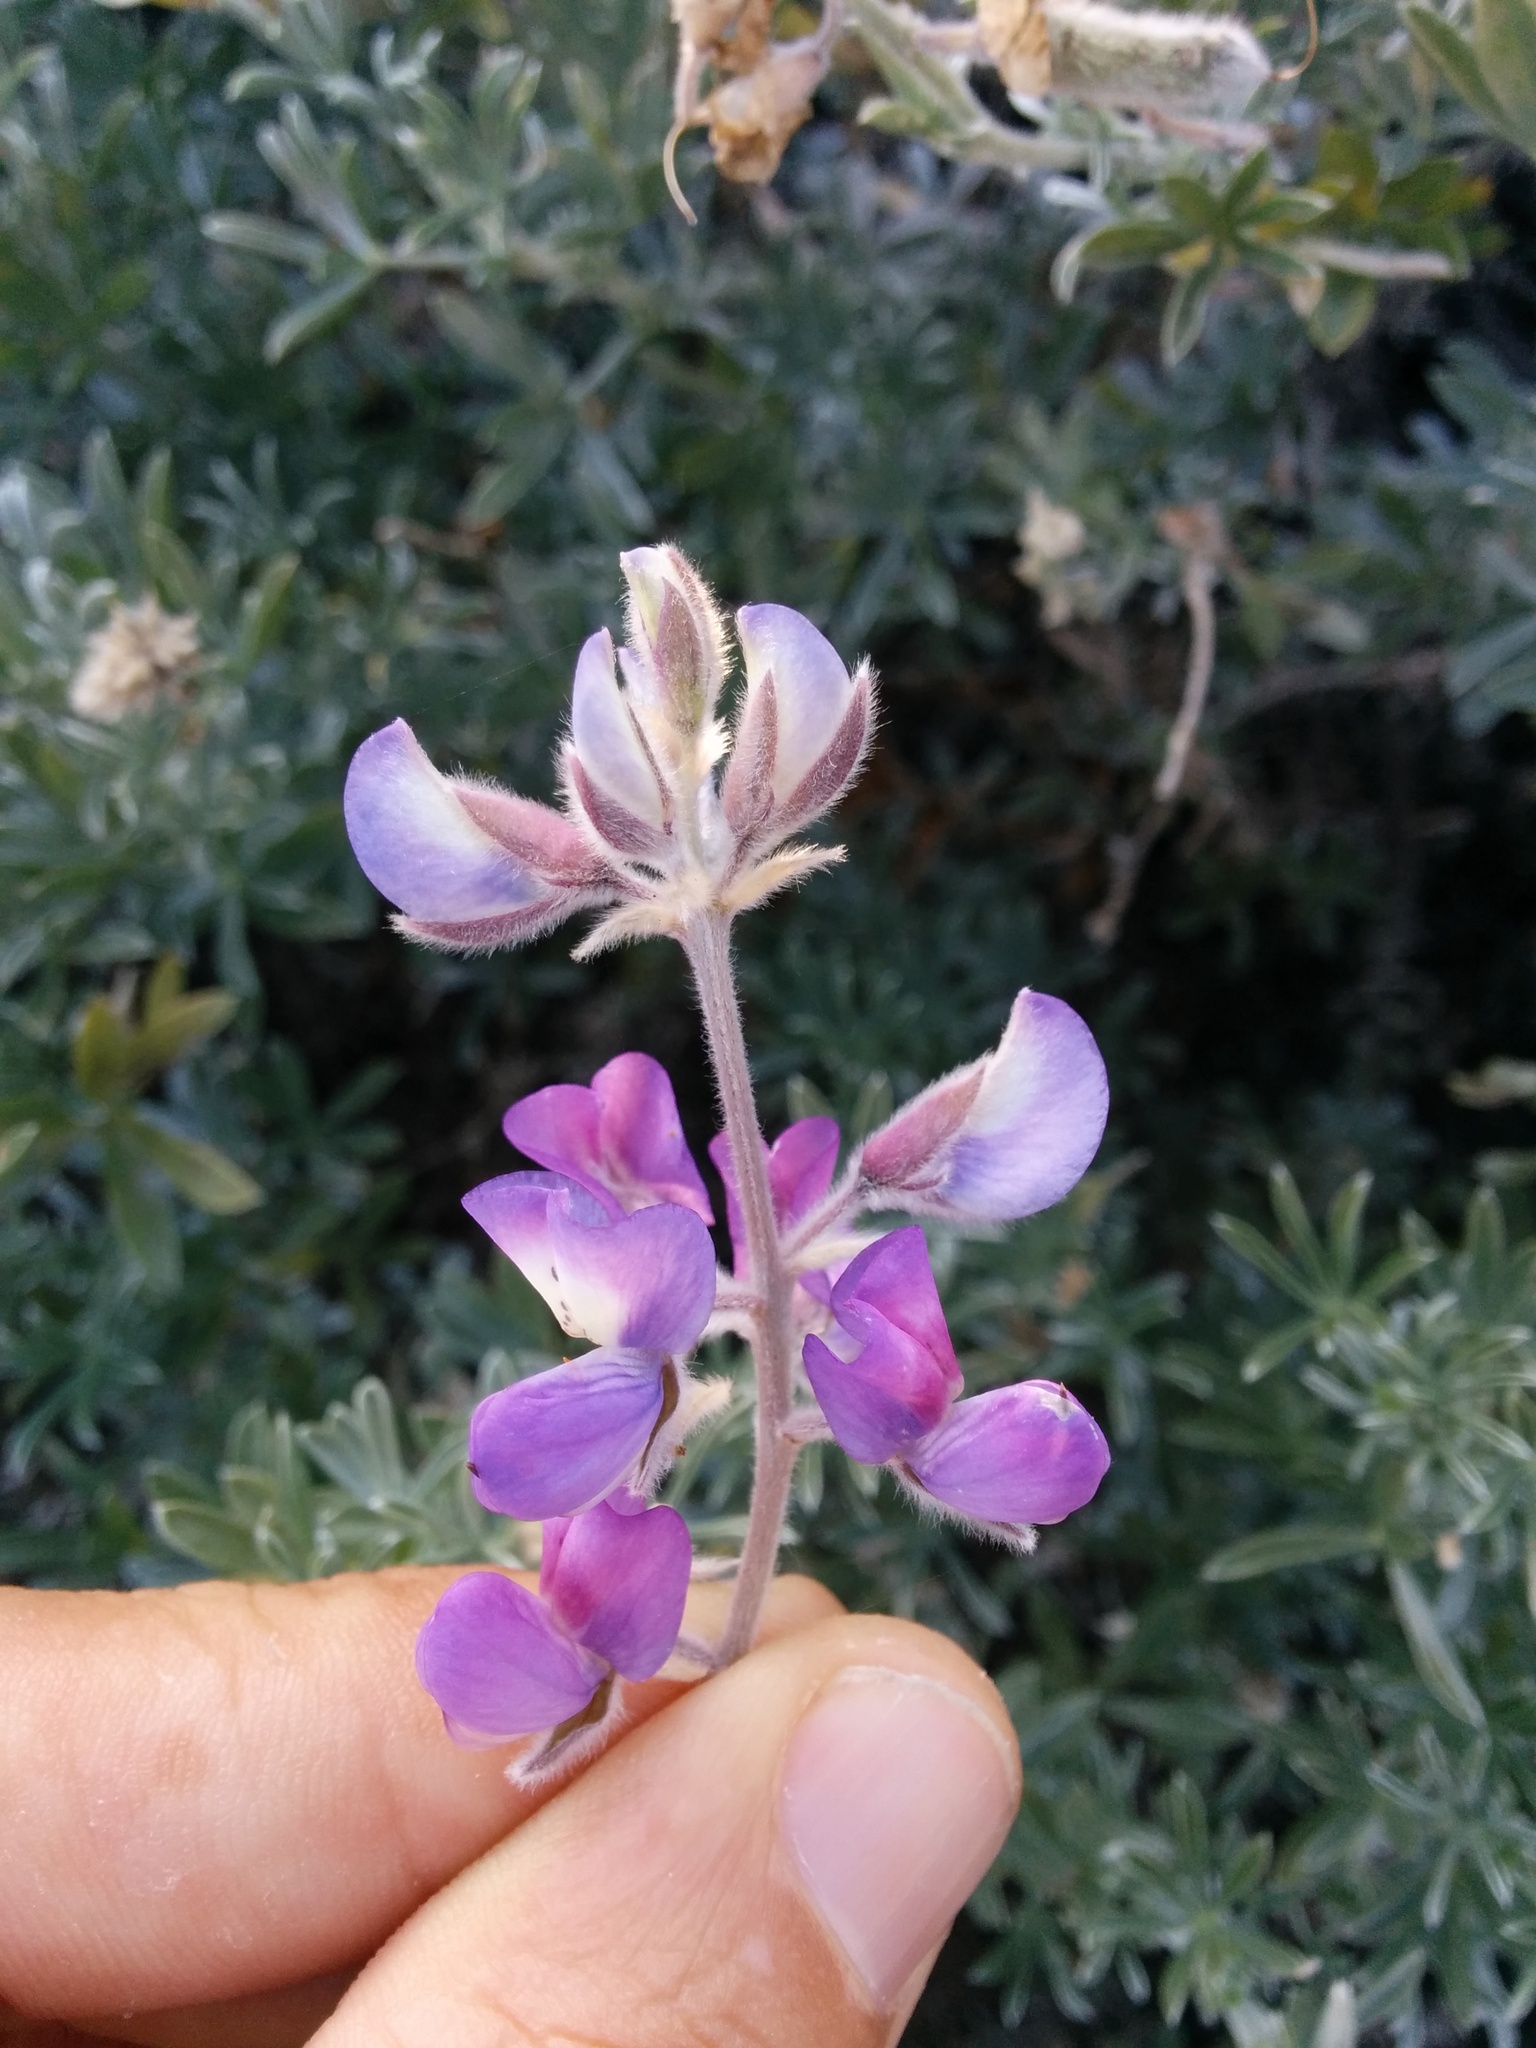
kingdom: Plantae
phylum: Tracheophyta
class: Magnoliopsida
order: Fabales
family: Fabaceae
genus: Lupinus
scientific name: Lupinus chamissonis
